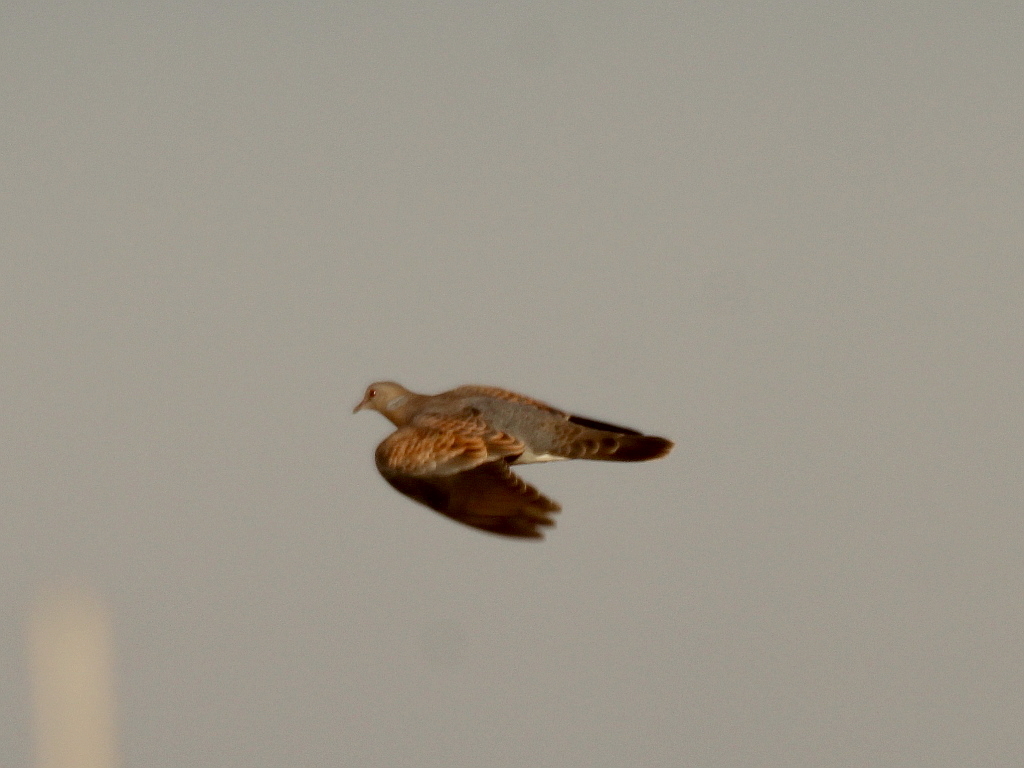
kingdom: Animalia
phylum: Chordata
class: Aves
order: Columbiformes
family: Columbidae
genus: Streptopelia
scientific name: Streptopelia orientalis
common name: Oriental turtle dove
